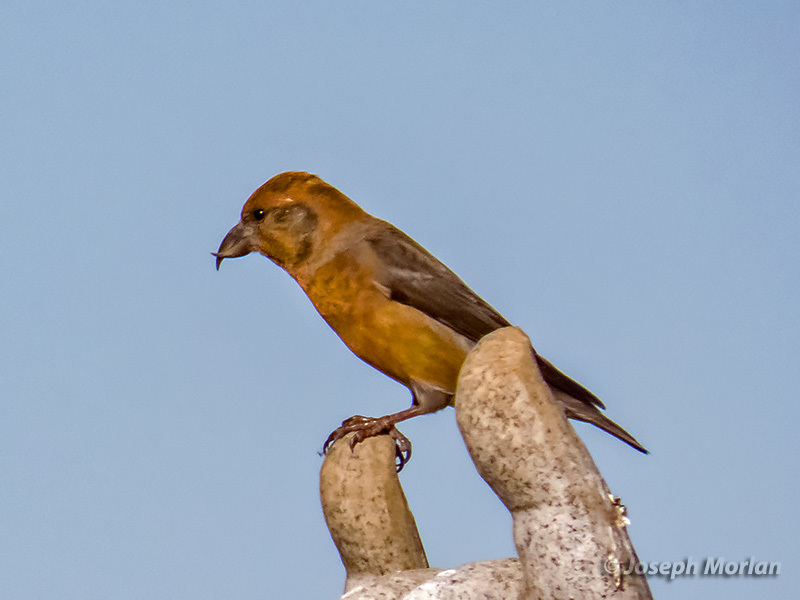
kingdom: Animalia
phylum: Chordata
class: Aves
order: Passeriformes
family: Fringillidae
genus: Loxia
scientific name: Loxia curvirostra
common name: Red crossbill
